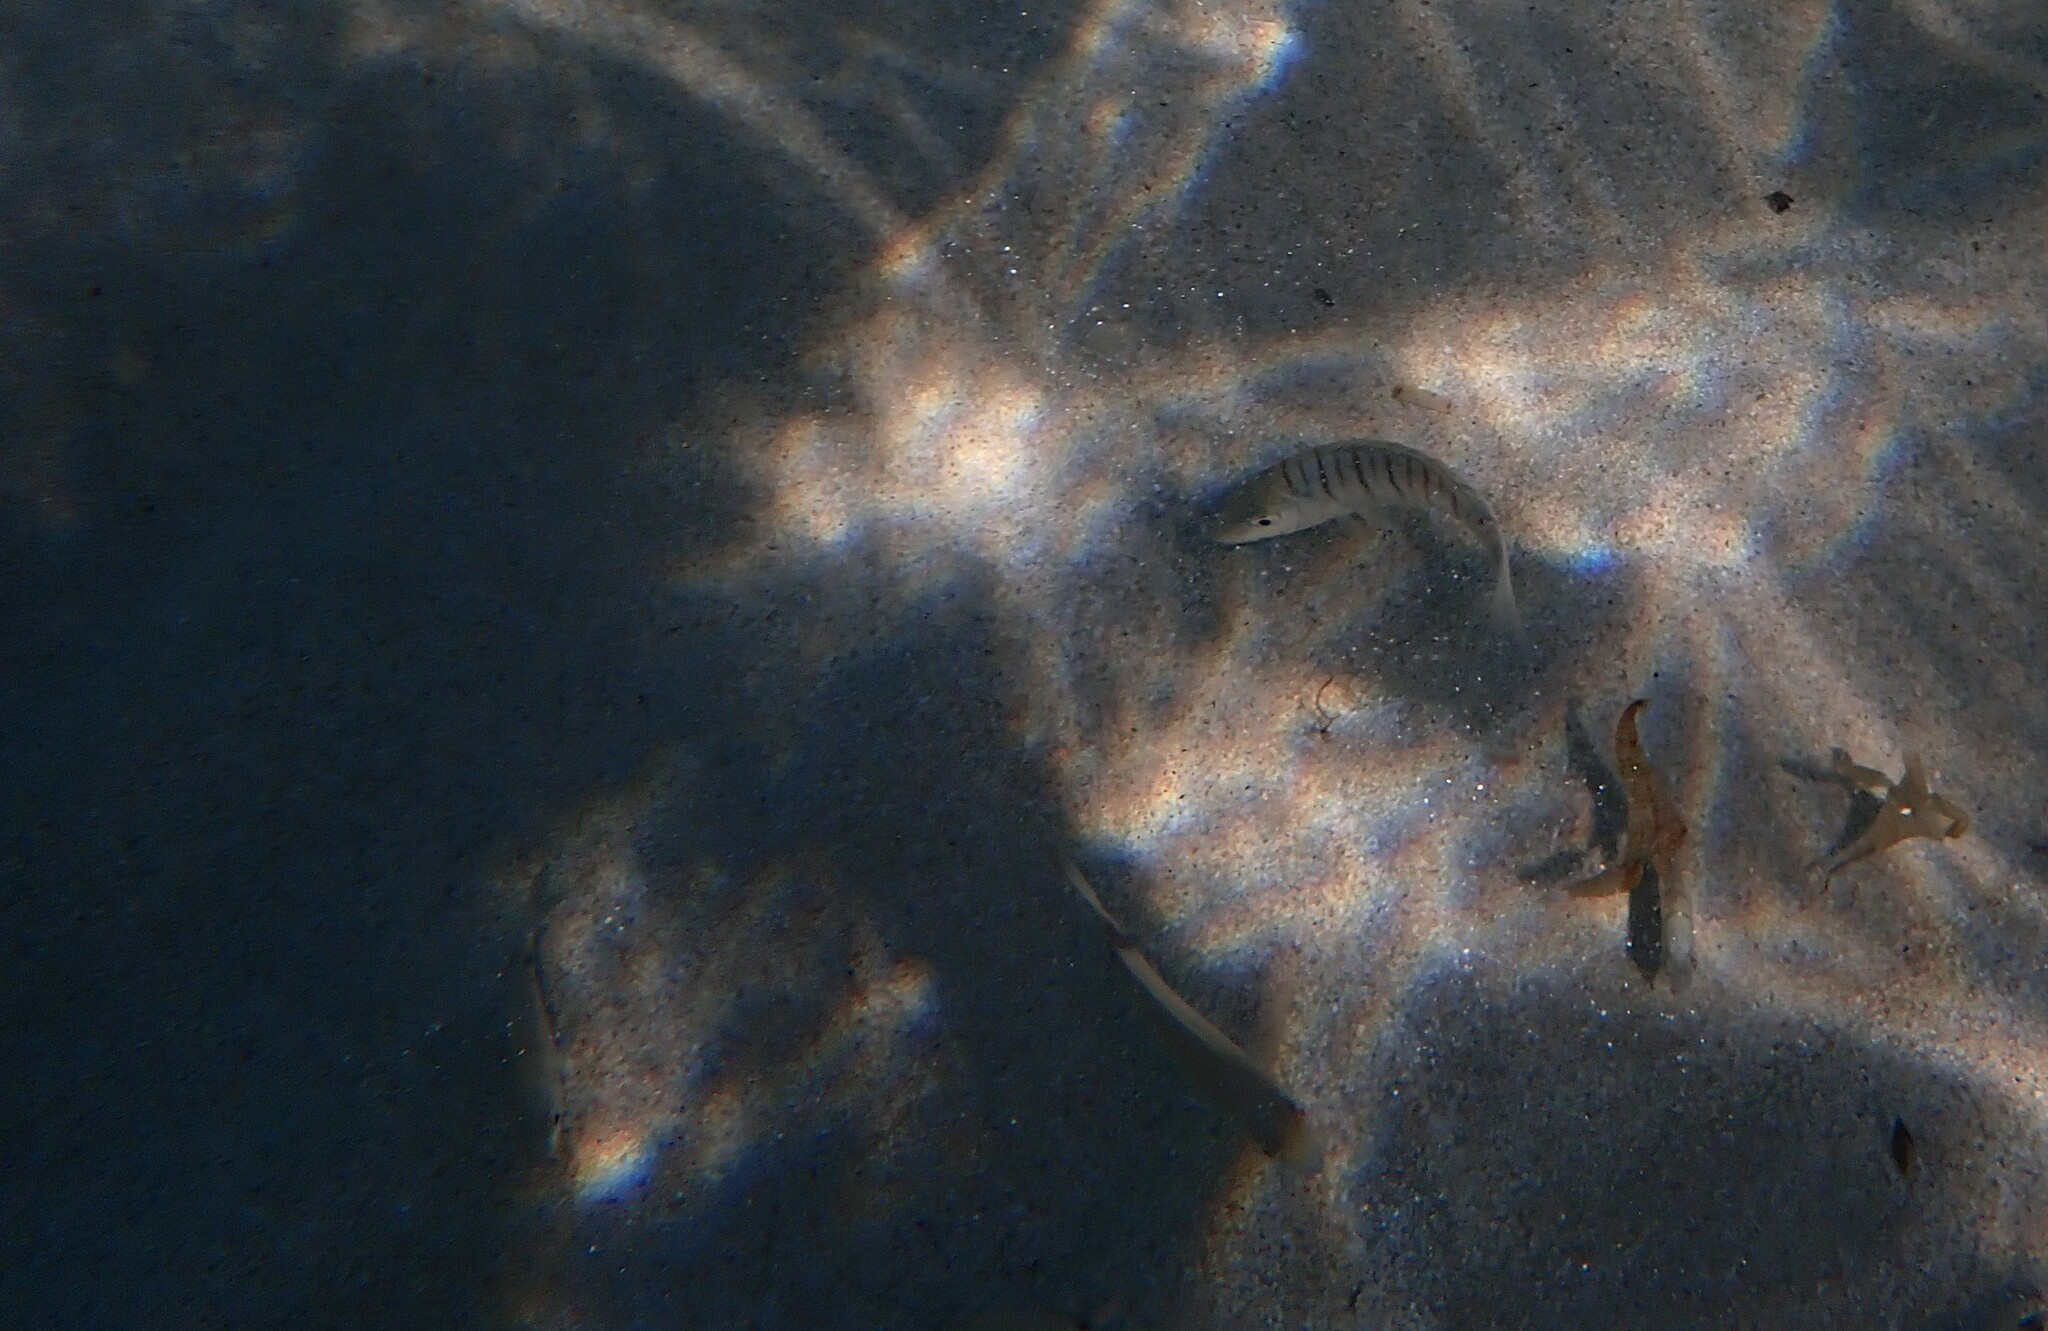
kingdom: Animalia
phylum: Chordata
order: Perciformes
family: Sparidae
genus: Lithognathus
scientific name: Lithognathus mormyrus
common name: Sand steenbras
